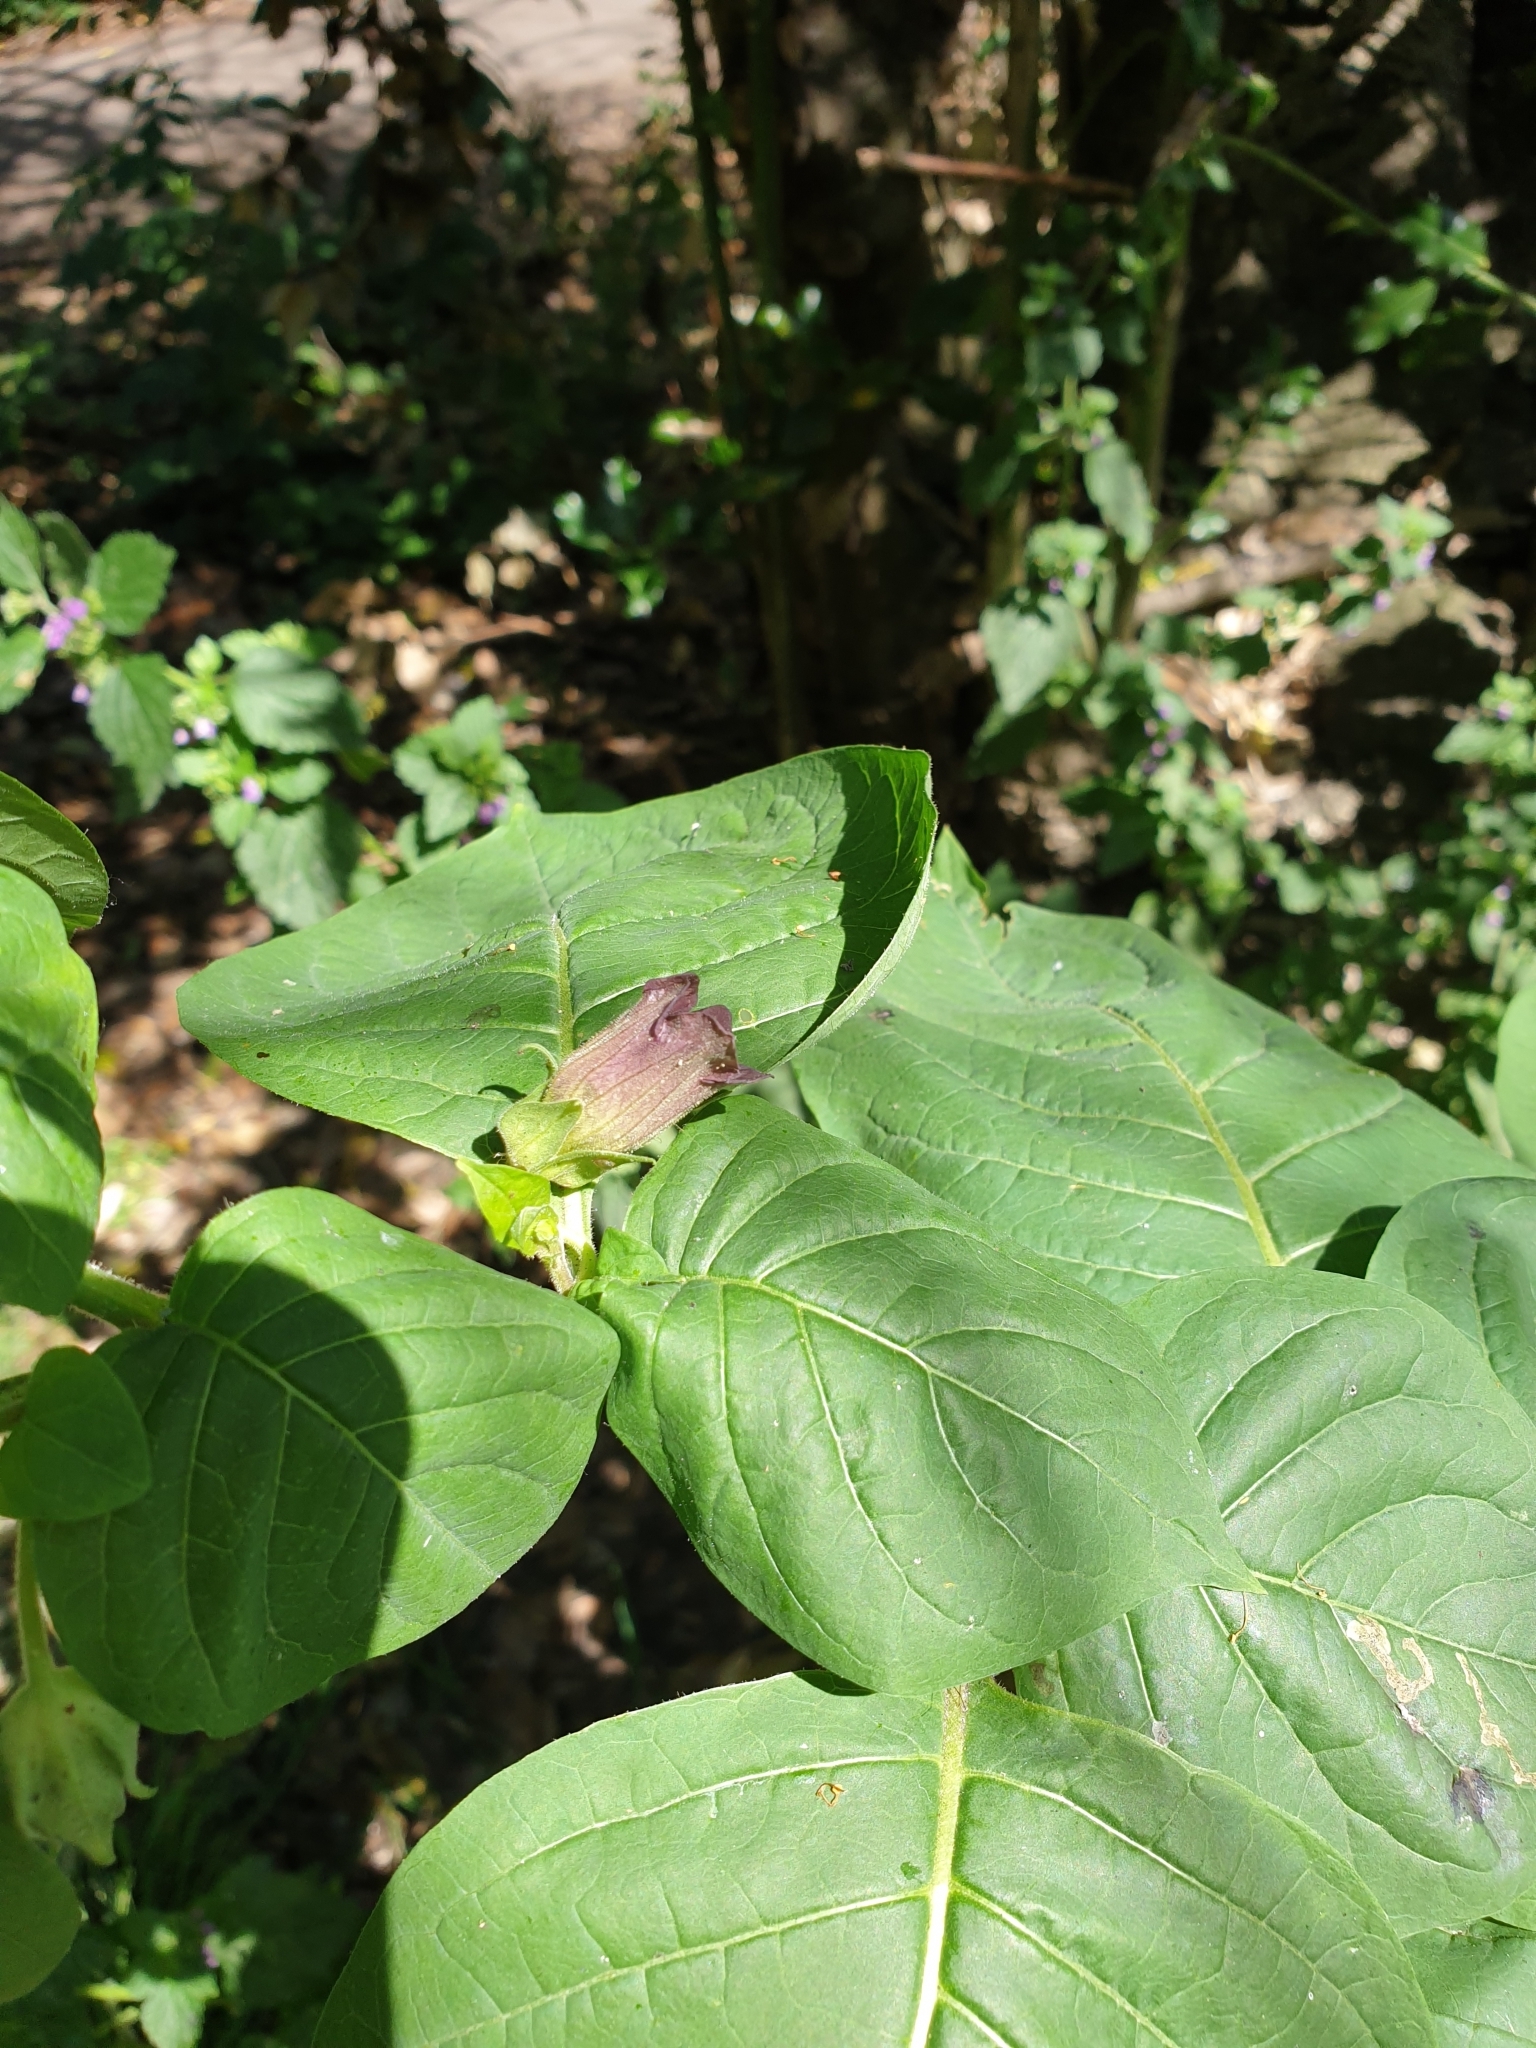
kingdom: Plantae
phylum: Tracheophyta
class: Magnoliopsida
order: Solanales
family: Solanaceae
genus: Atropa
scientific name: Atropa belladonna
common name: Deadly nightshade
